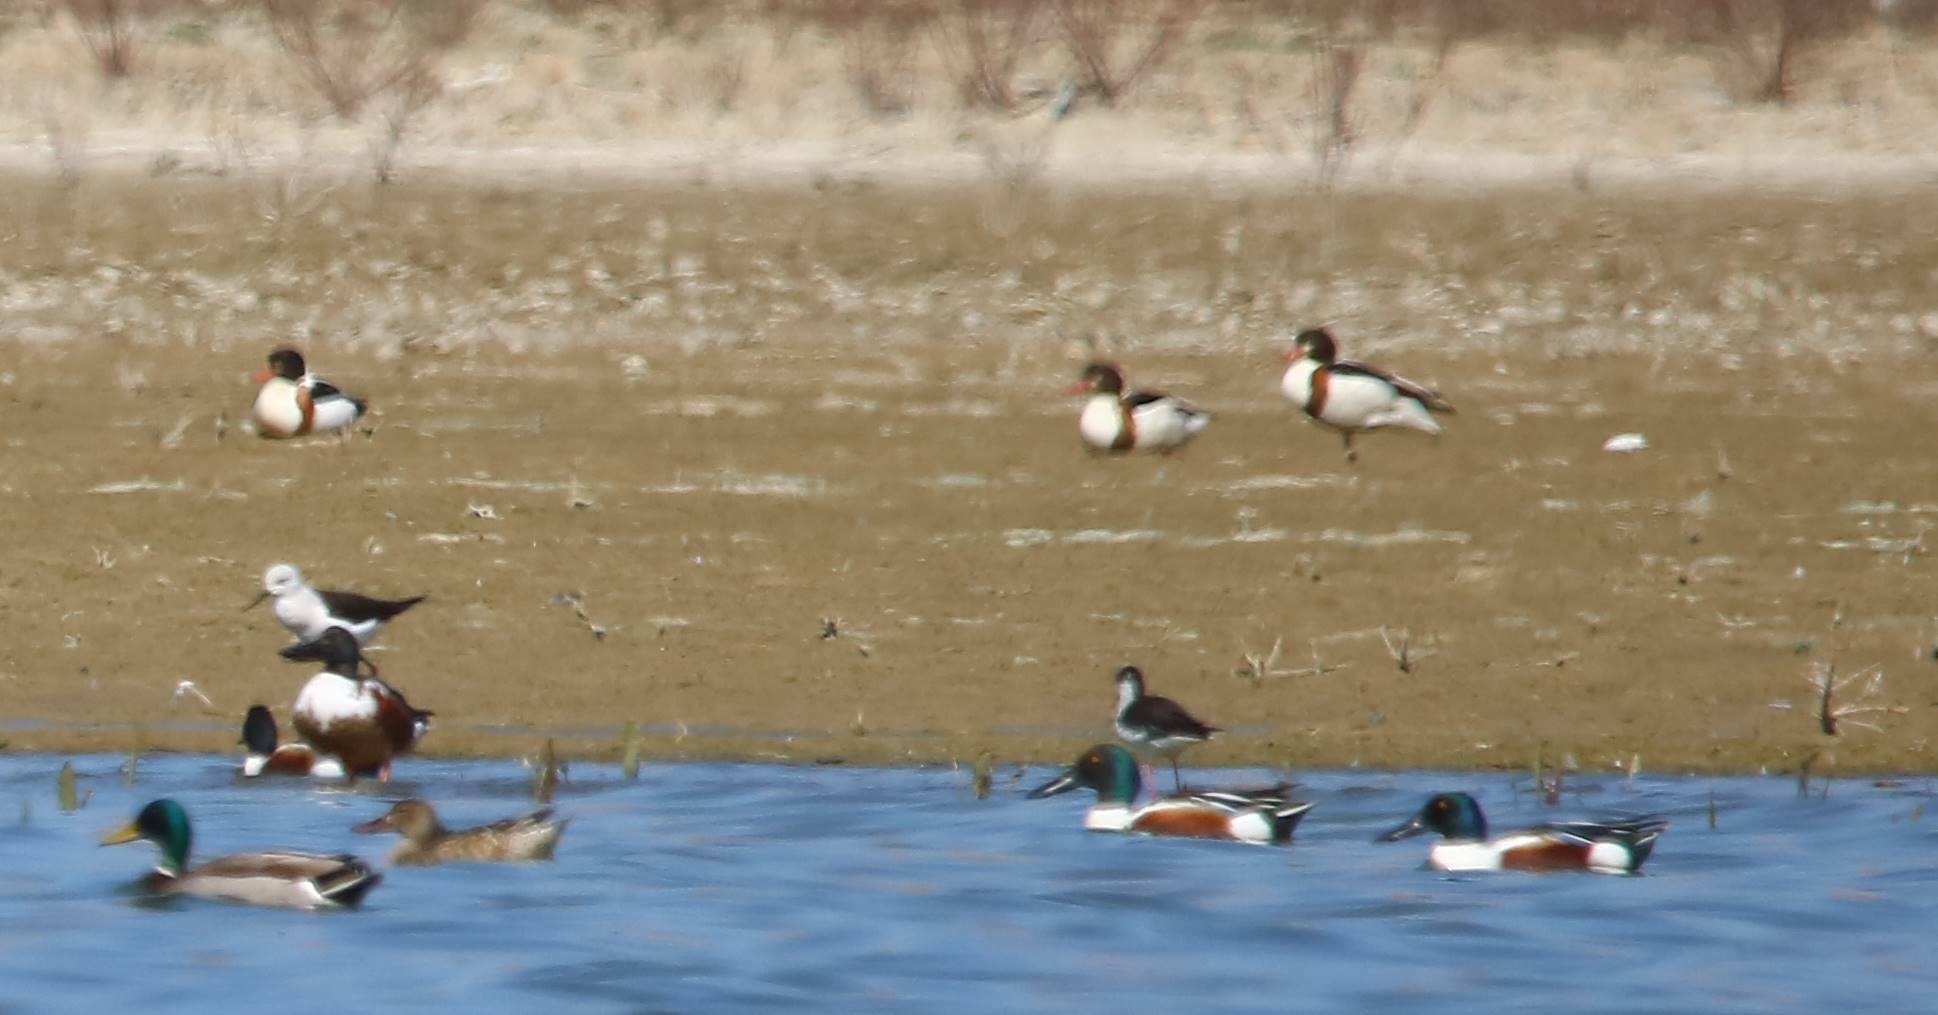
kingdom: Animalia
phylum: Chordata
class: Aves
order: Anseriformes
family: Anatidae
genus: Tadorna
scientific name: Tadorna tadorna
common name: Common shelduck
